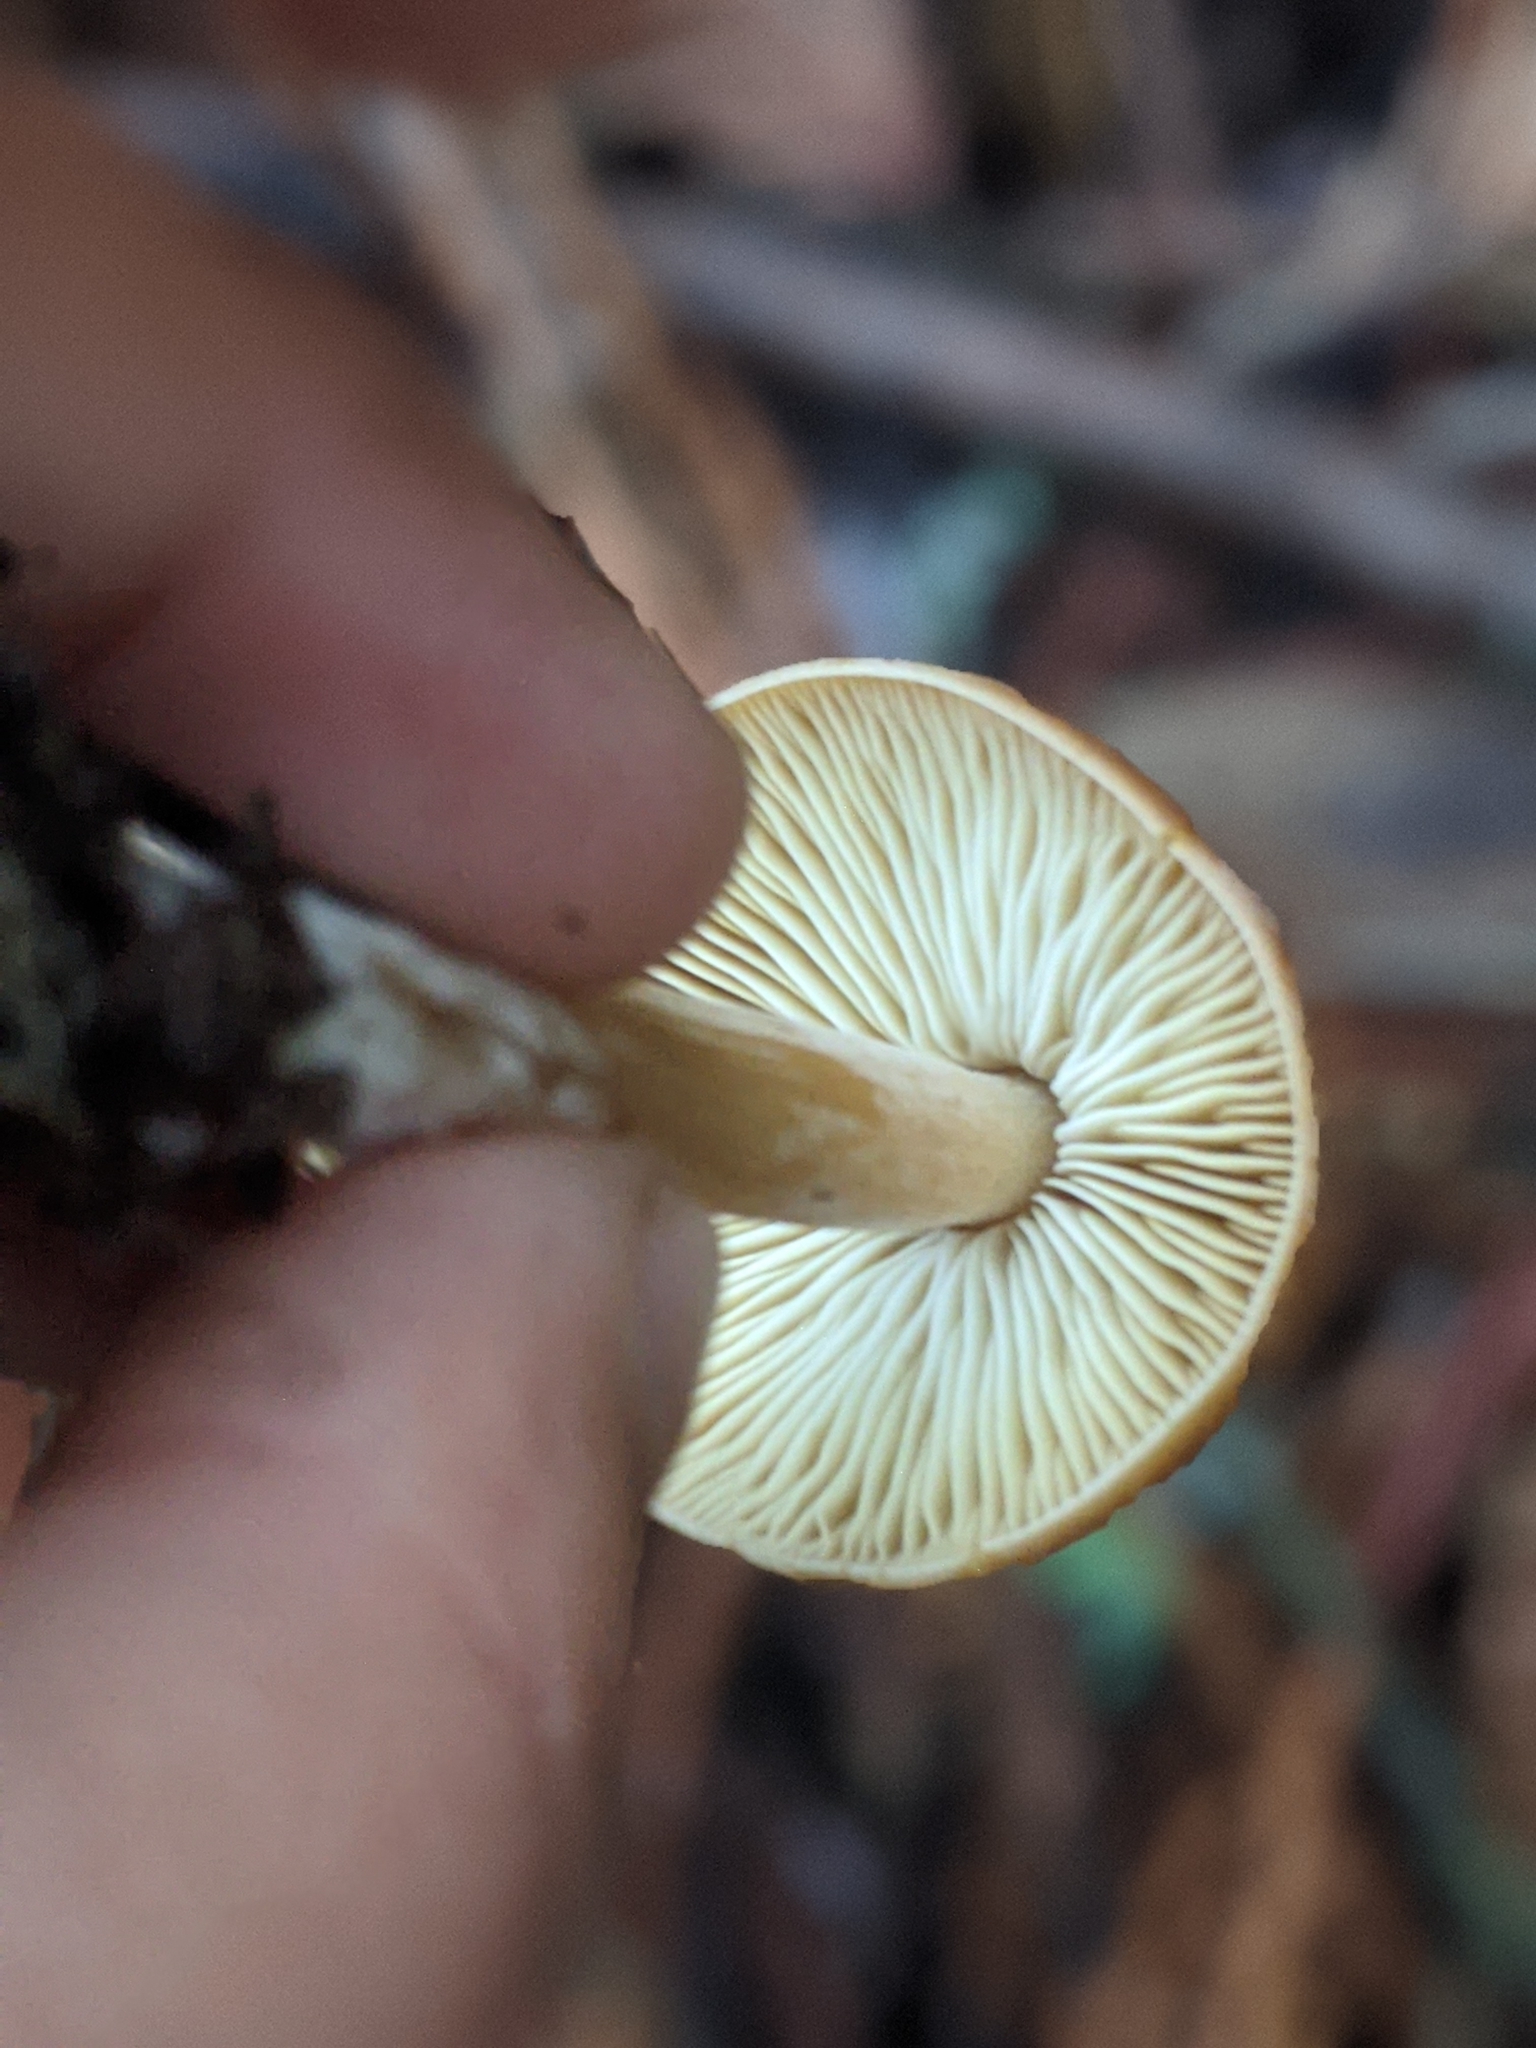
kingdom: Fungi
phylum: Basidiomycota
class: Agaricomycetes
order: Agaricales
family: Tricholomataceae
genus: Caulorhiza
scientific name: Caulorhiza umbonata
